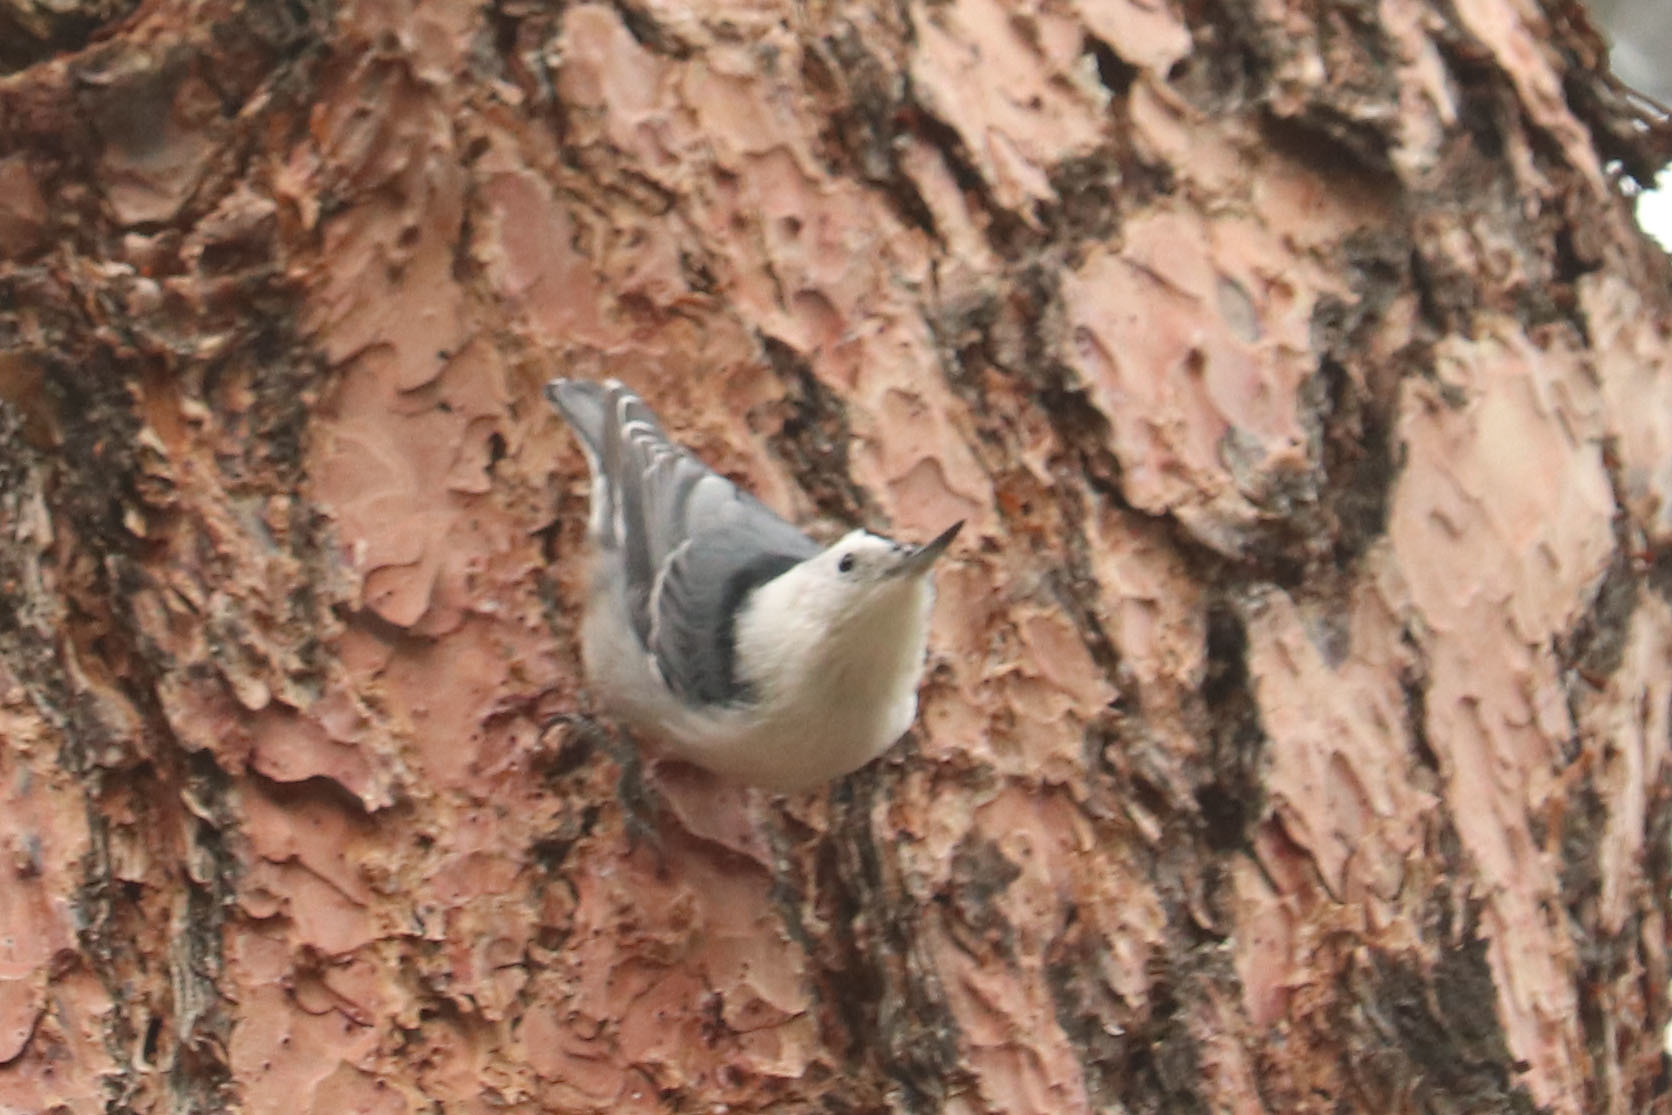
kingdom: Animalia
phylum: Chordata
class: Aves
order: Passeriformes
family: Sittidae
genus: Sitta
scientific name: Sitta carolinensis
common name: White-breasted nuthatch
